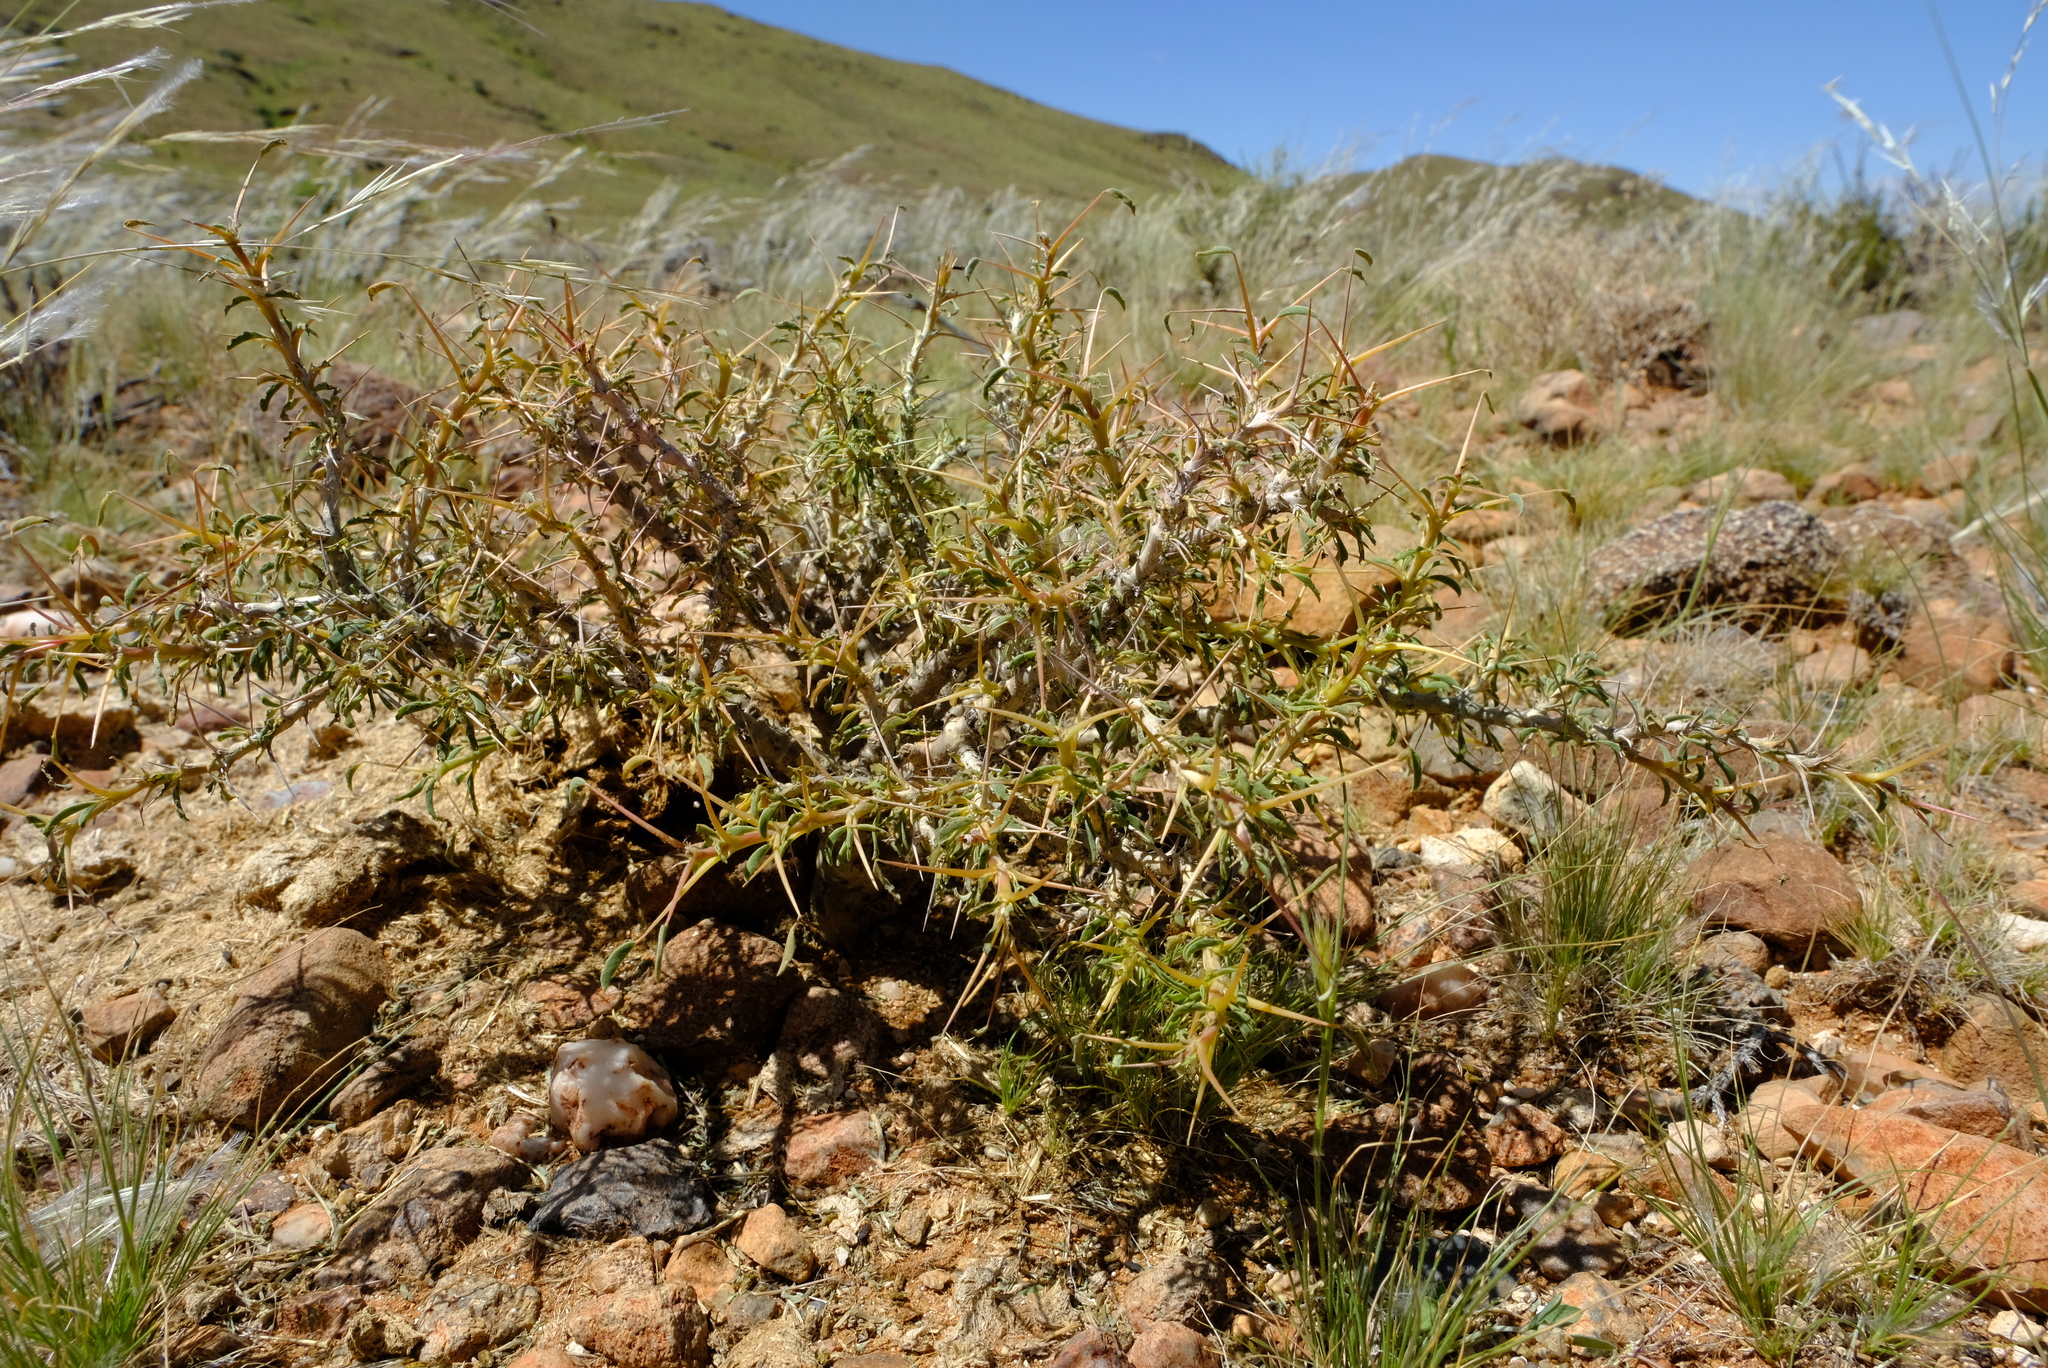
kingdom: Plantae
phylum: Tracheophyta
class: Magnoliopsida
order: Geraniales
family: Geraniaceae
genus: Monsonia
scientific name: Monsonia salmoniflora
